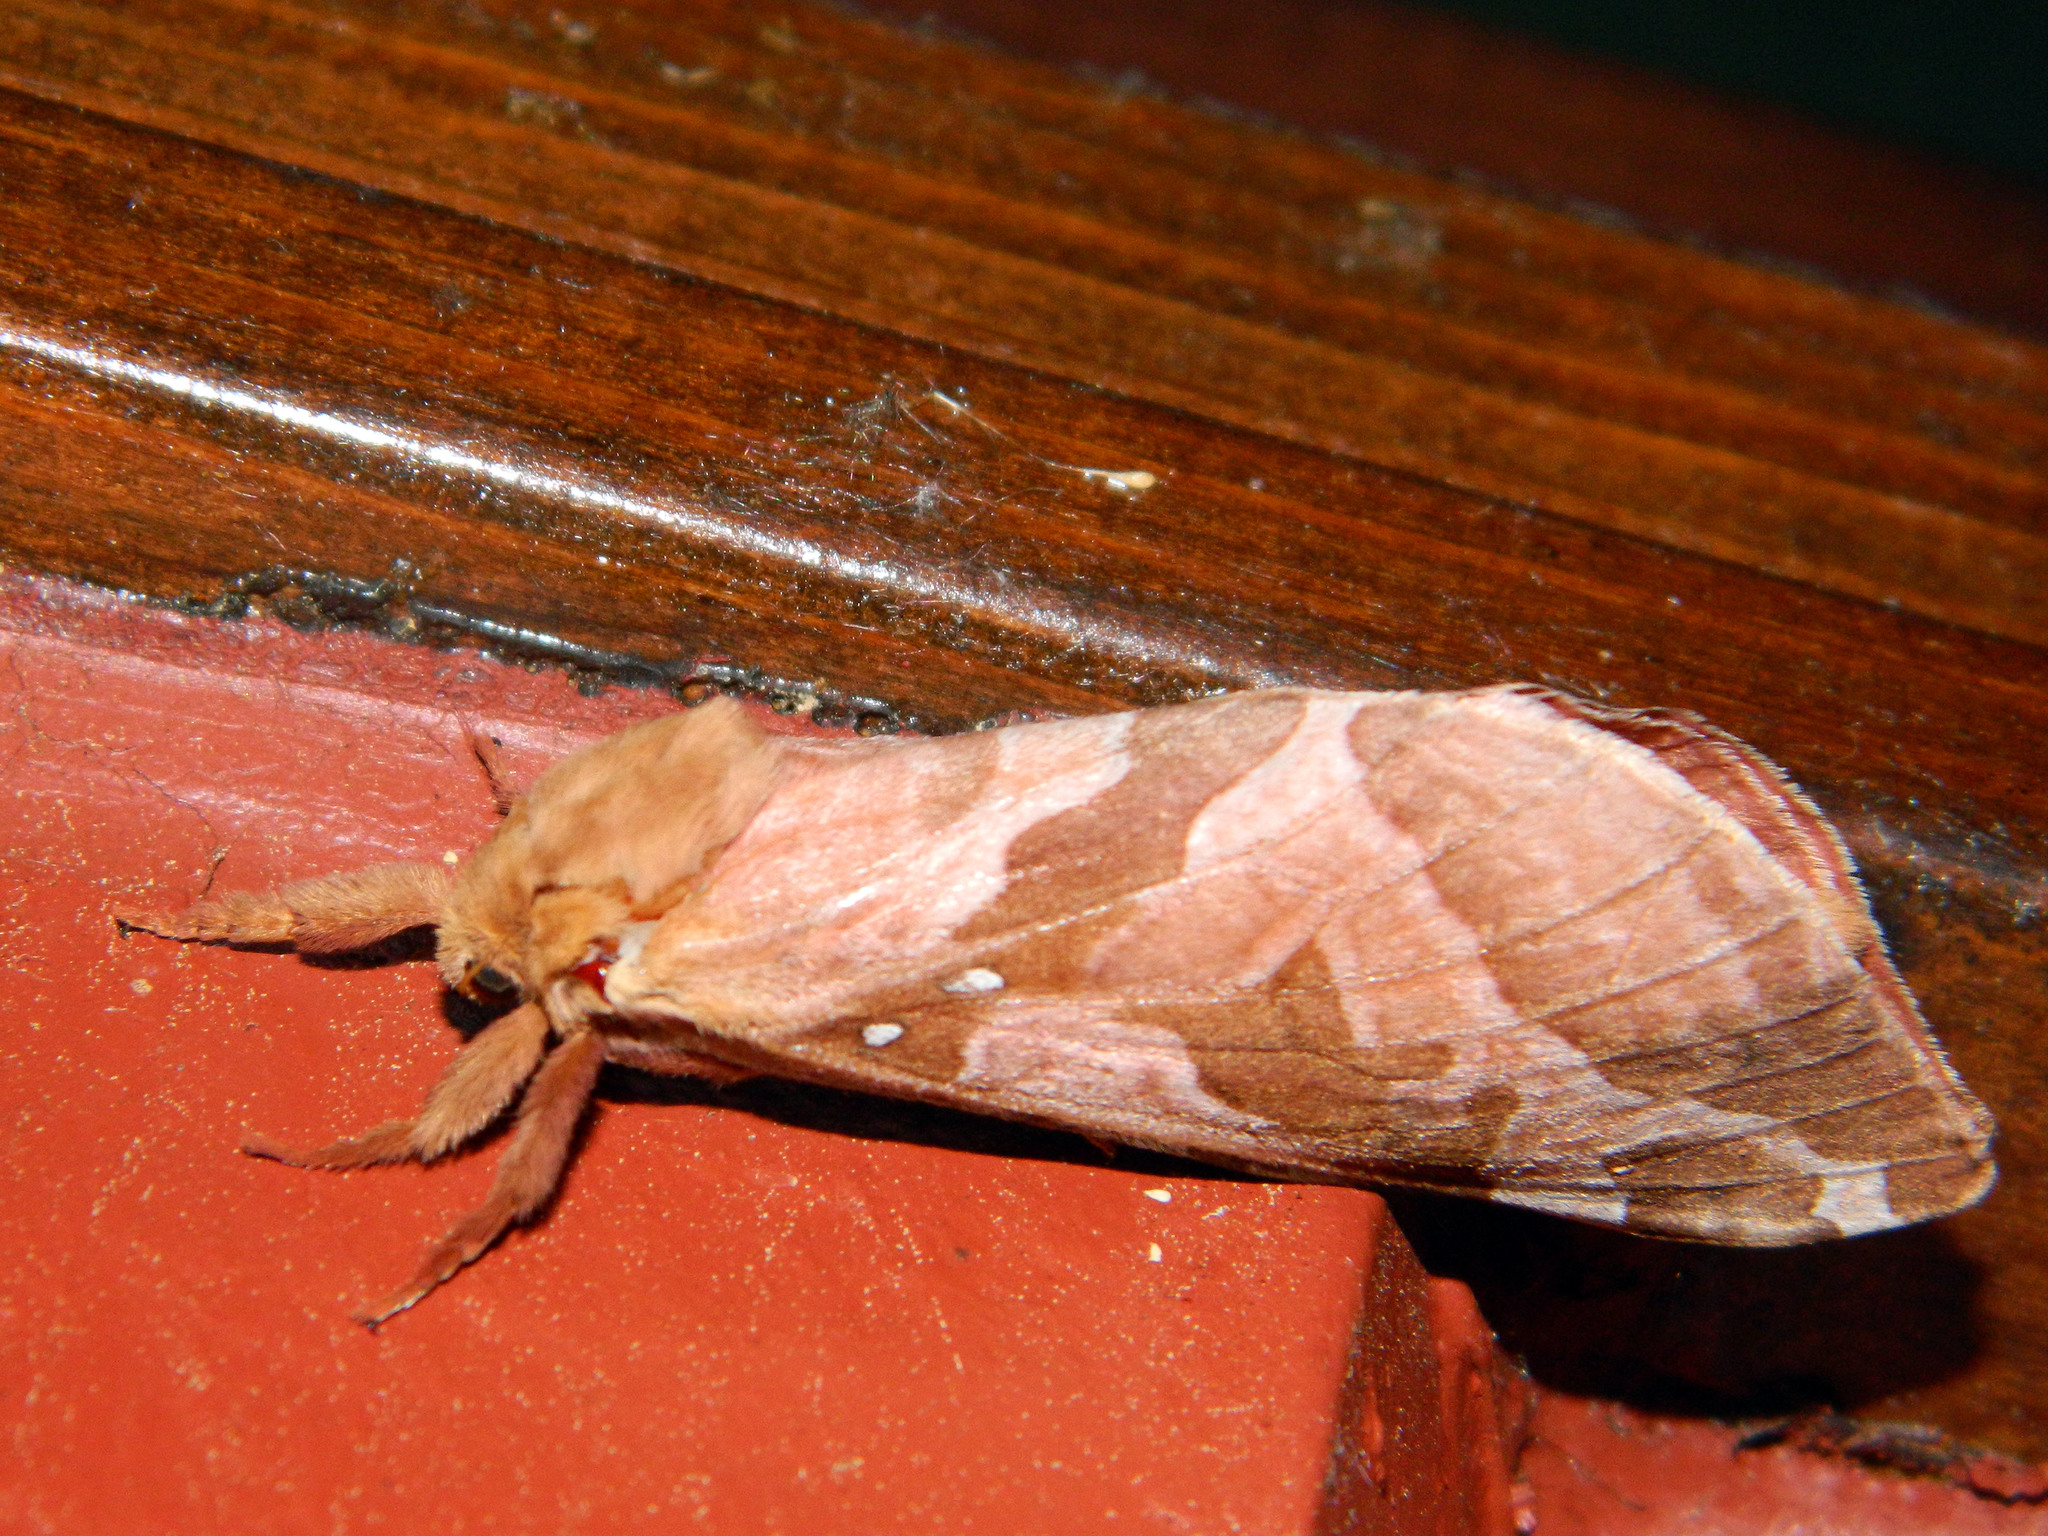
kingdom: Animalia
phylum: Arthropoda
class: Insecta
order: Lepidoptera
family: Hepialidae
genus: Sthenopis
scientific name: Sthenopis purpurascens
